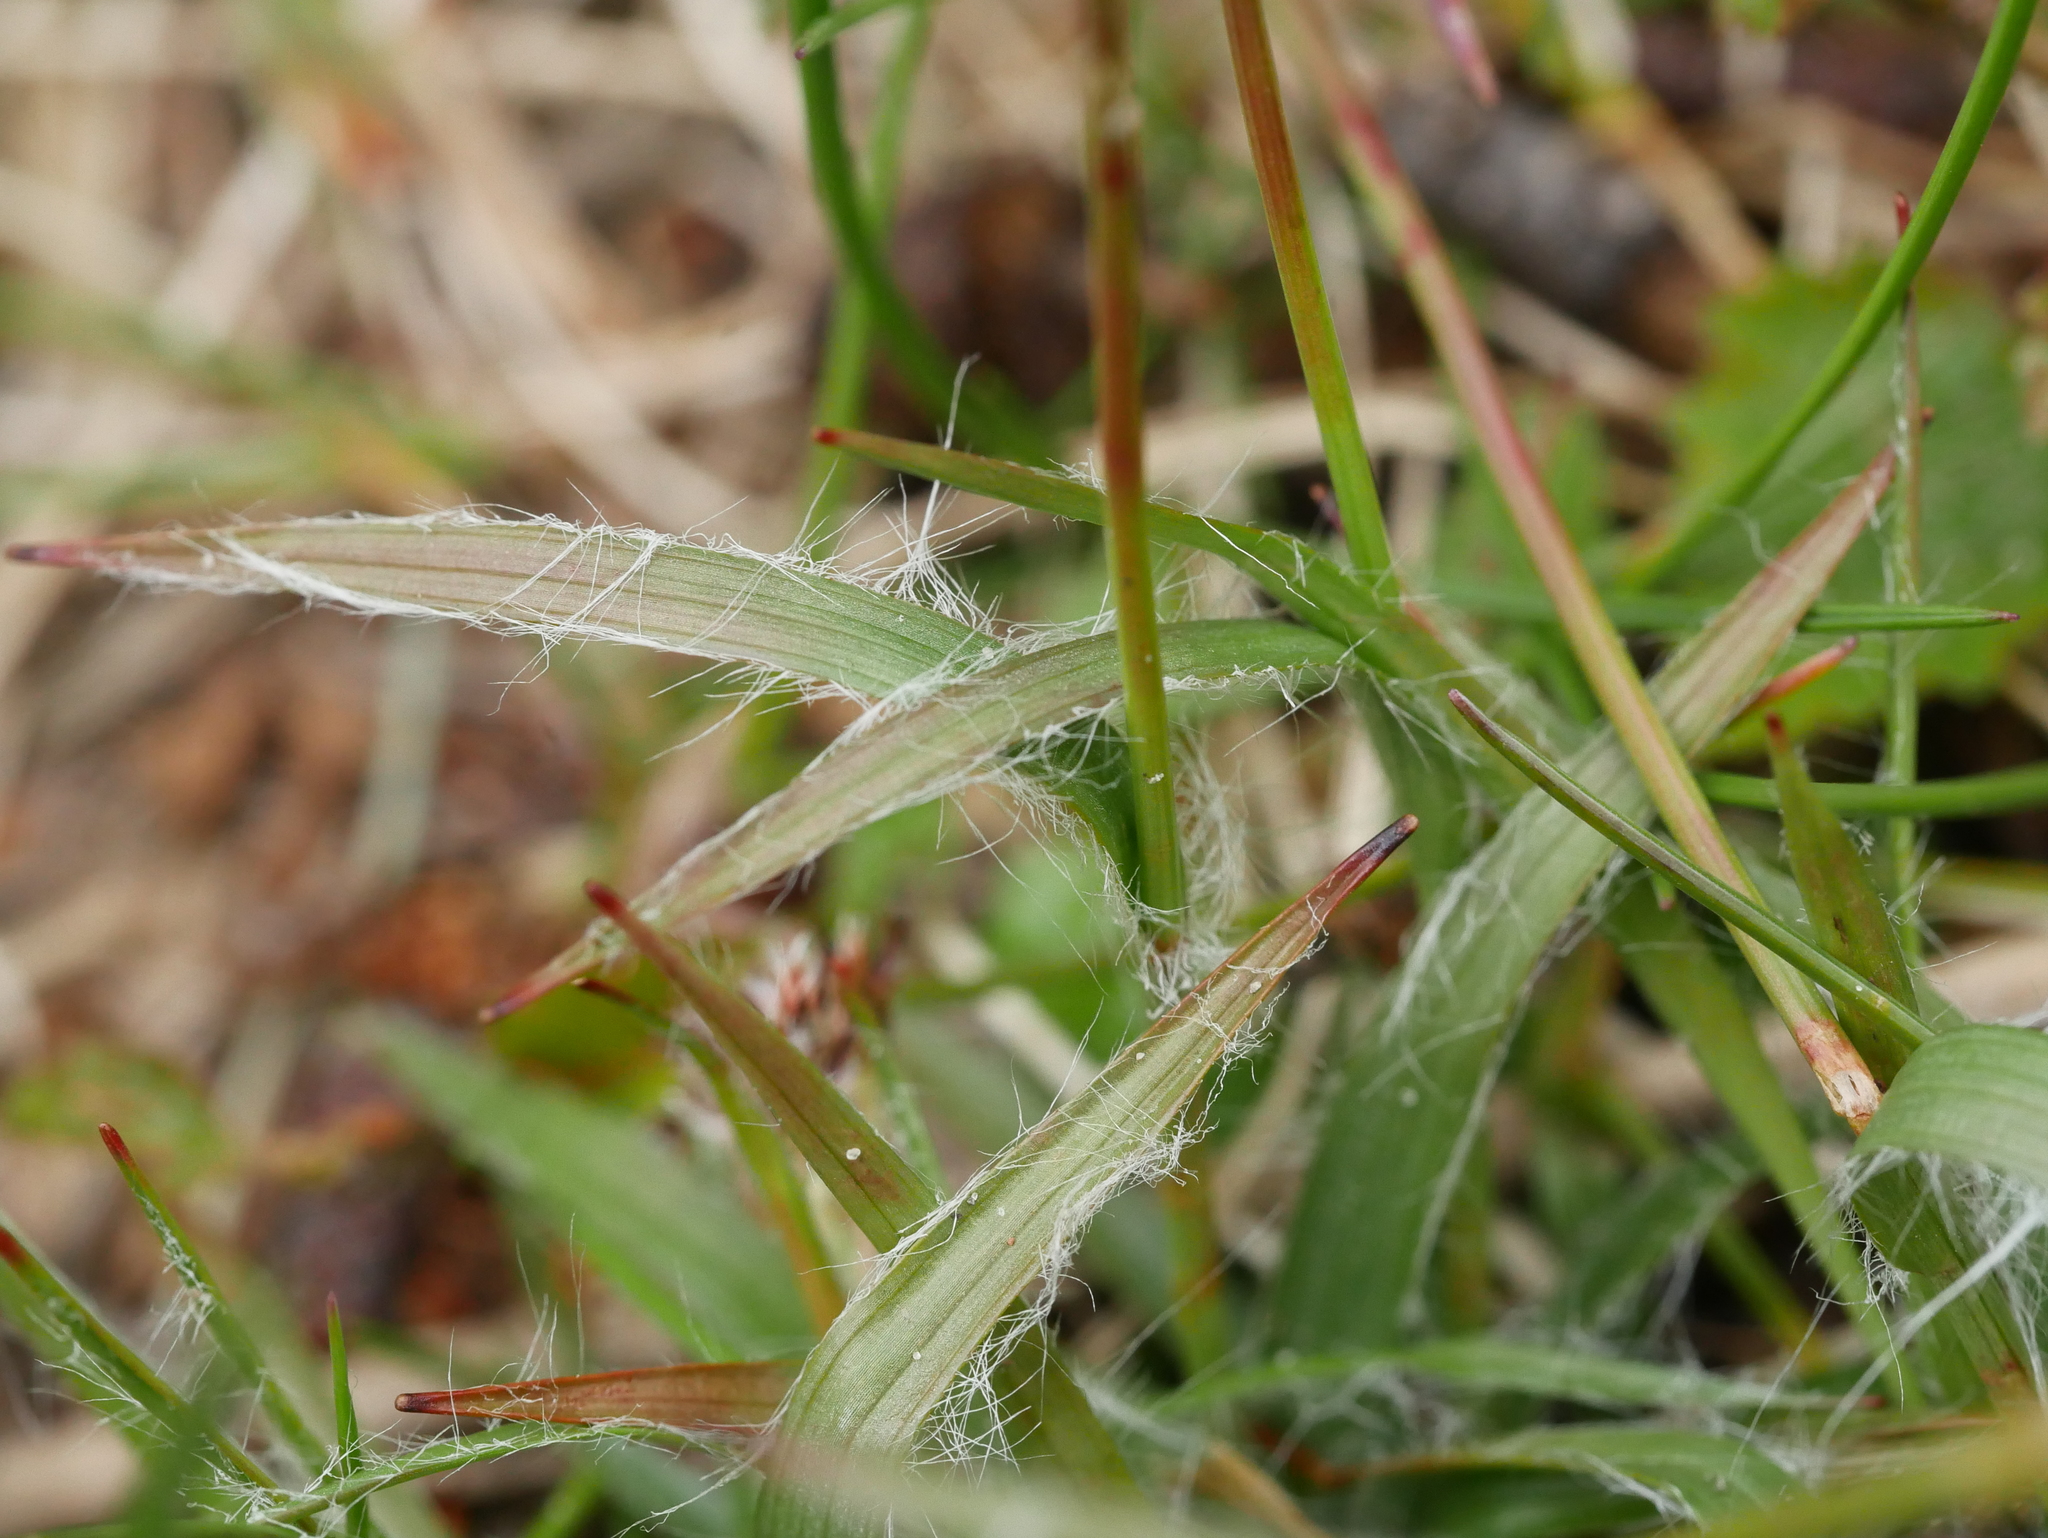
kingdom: Plantae
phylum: Tracheophyta
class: Liliopsida
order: Poales
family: Juncaceae
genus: Luzula
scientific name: Luzula campestris
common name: Field wood-rush
